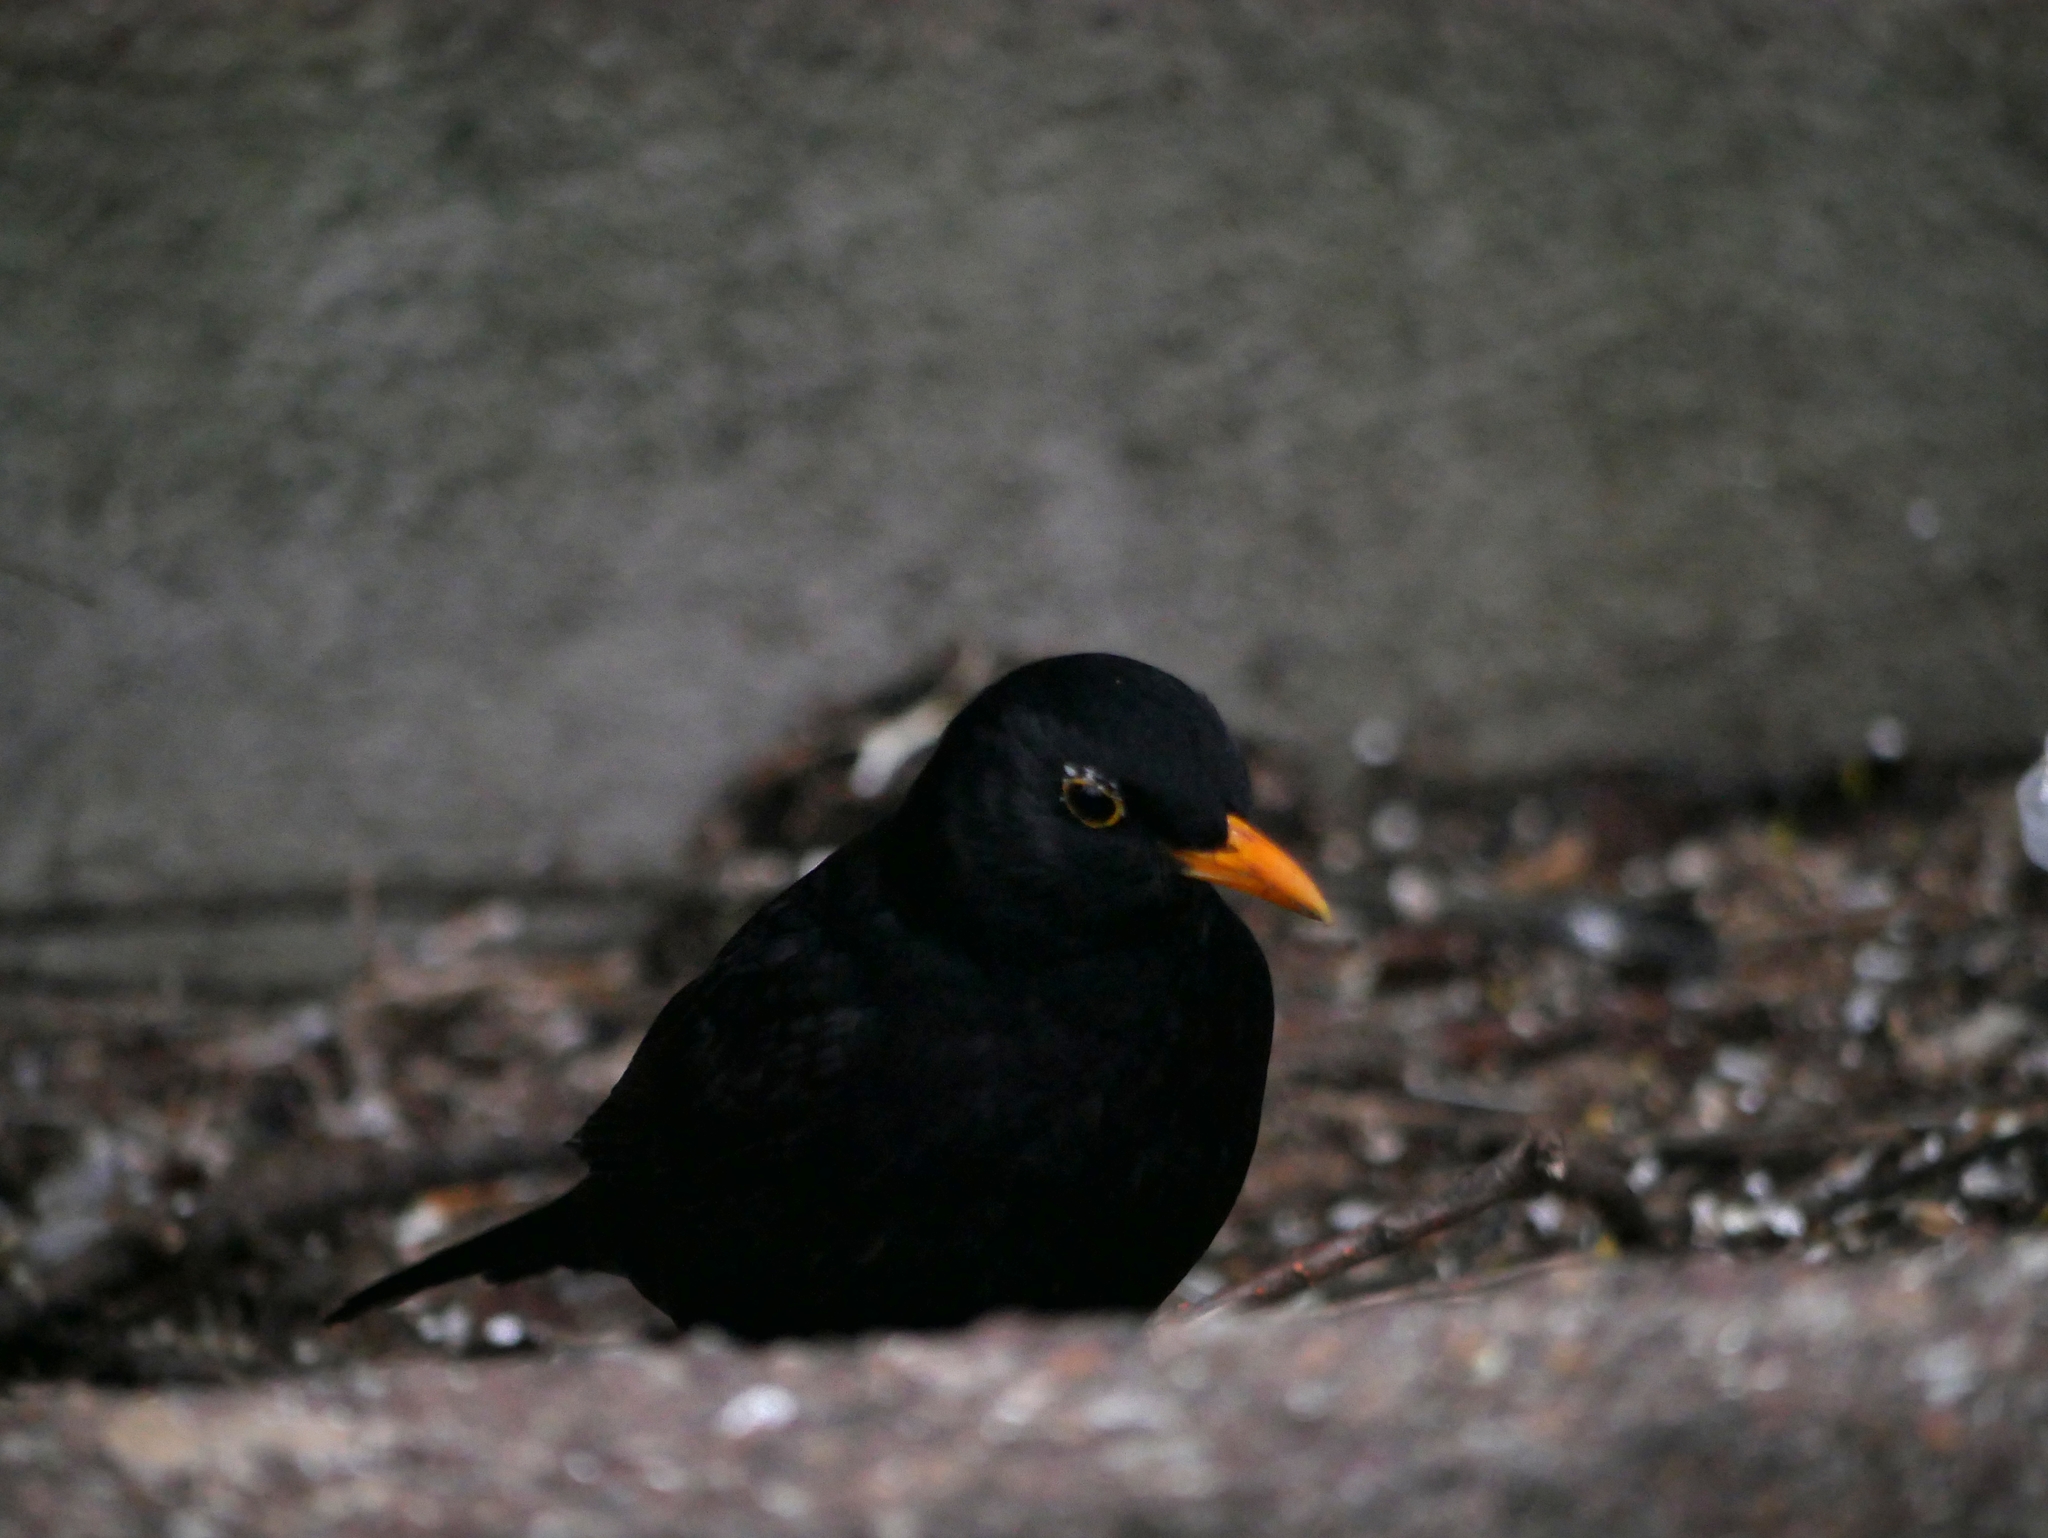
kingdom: Animalia
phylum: Chordata
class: Aves
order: Passeriformes
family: Turdidae
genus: Turdus
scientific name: Turdus merula
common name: Common blackbird
